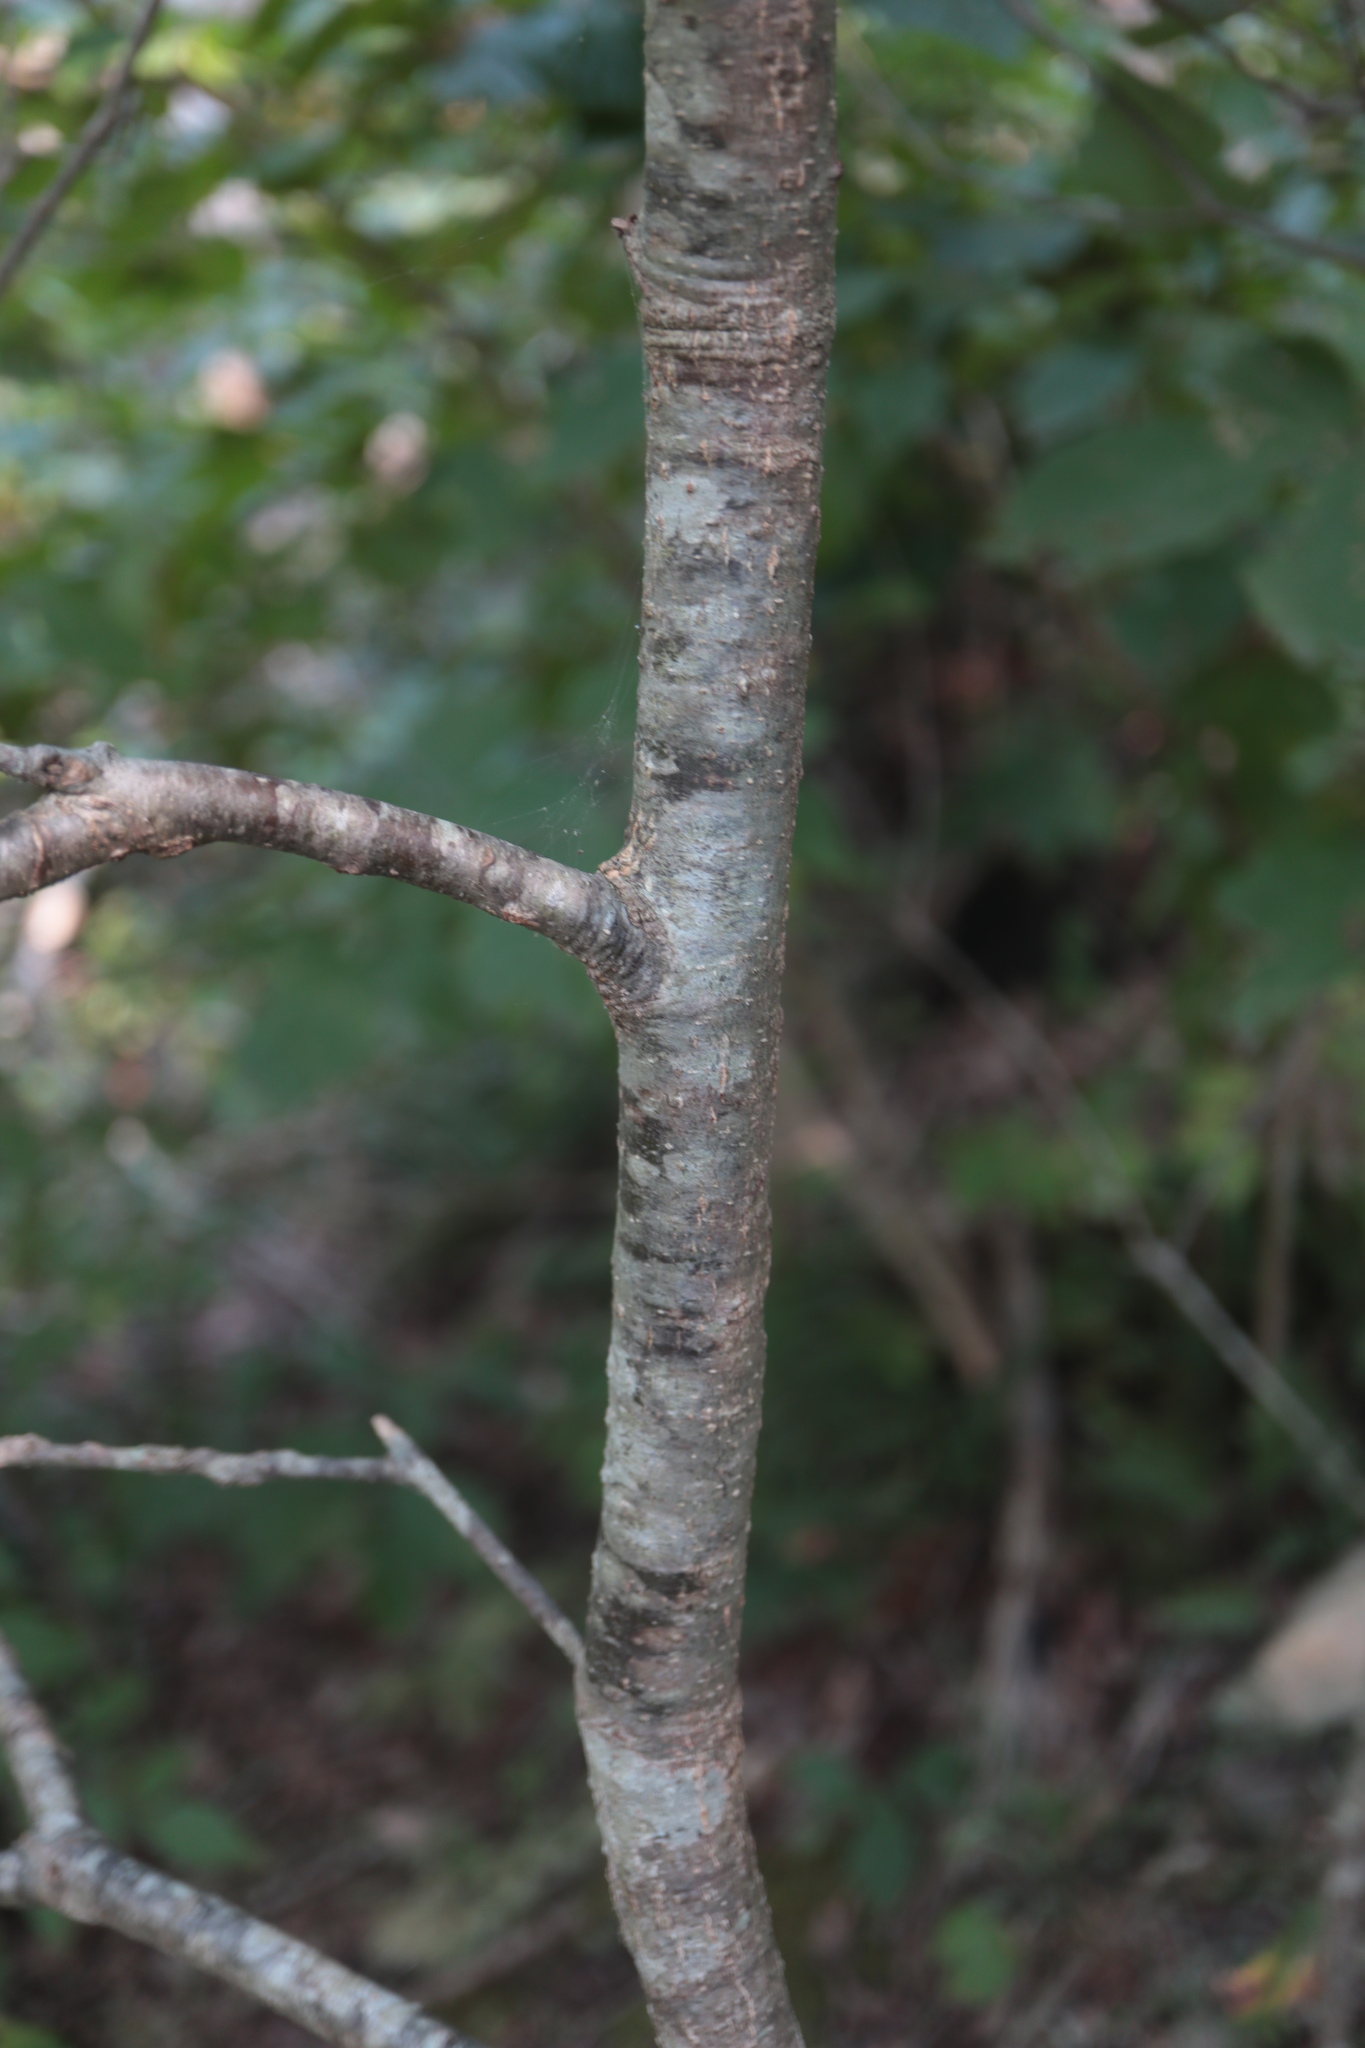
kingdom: Plantae
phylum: Tracheophyta
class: Magnoliopsida
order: Fagales
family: Fagaceae
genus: Quercus
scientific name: Quercus montana
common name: Chestnut oak
